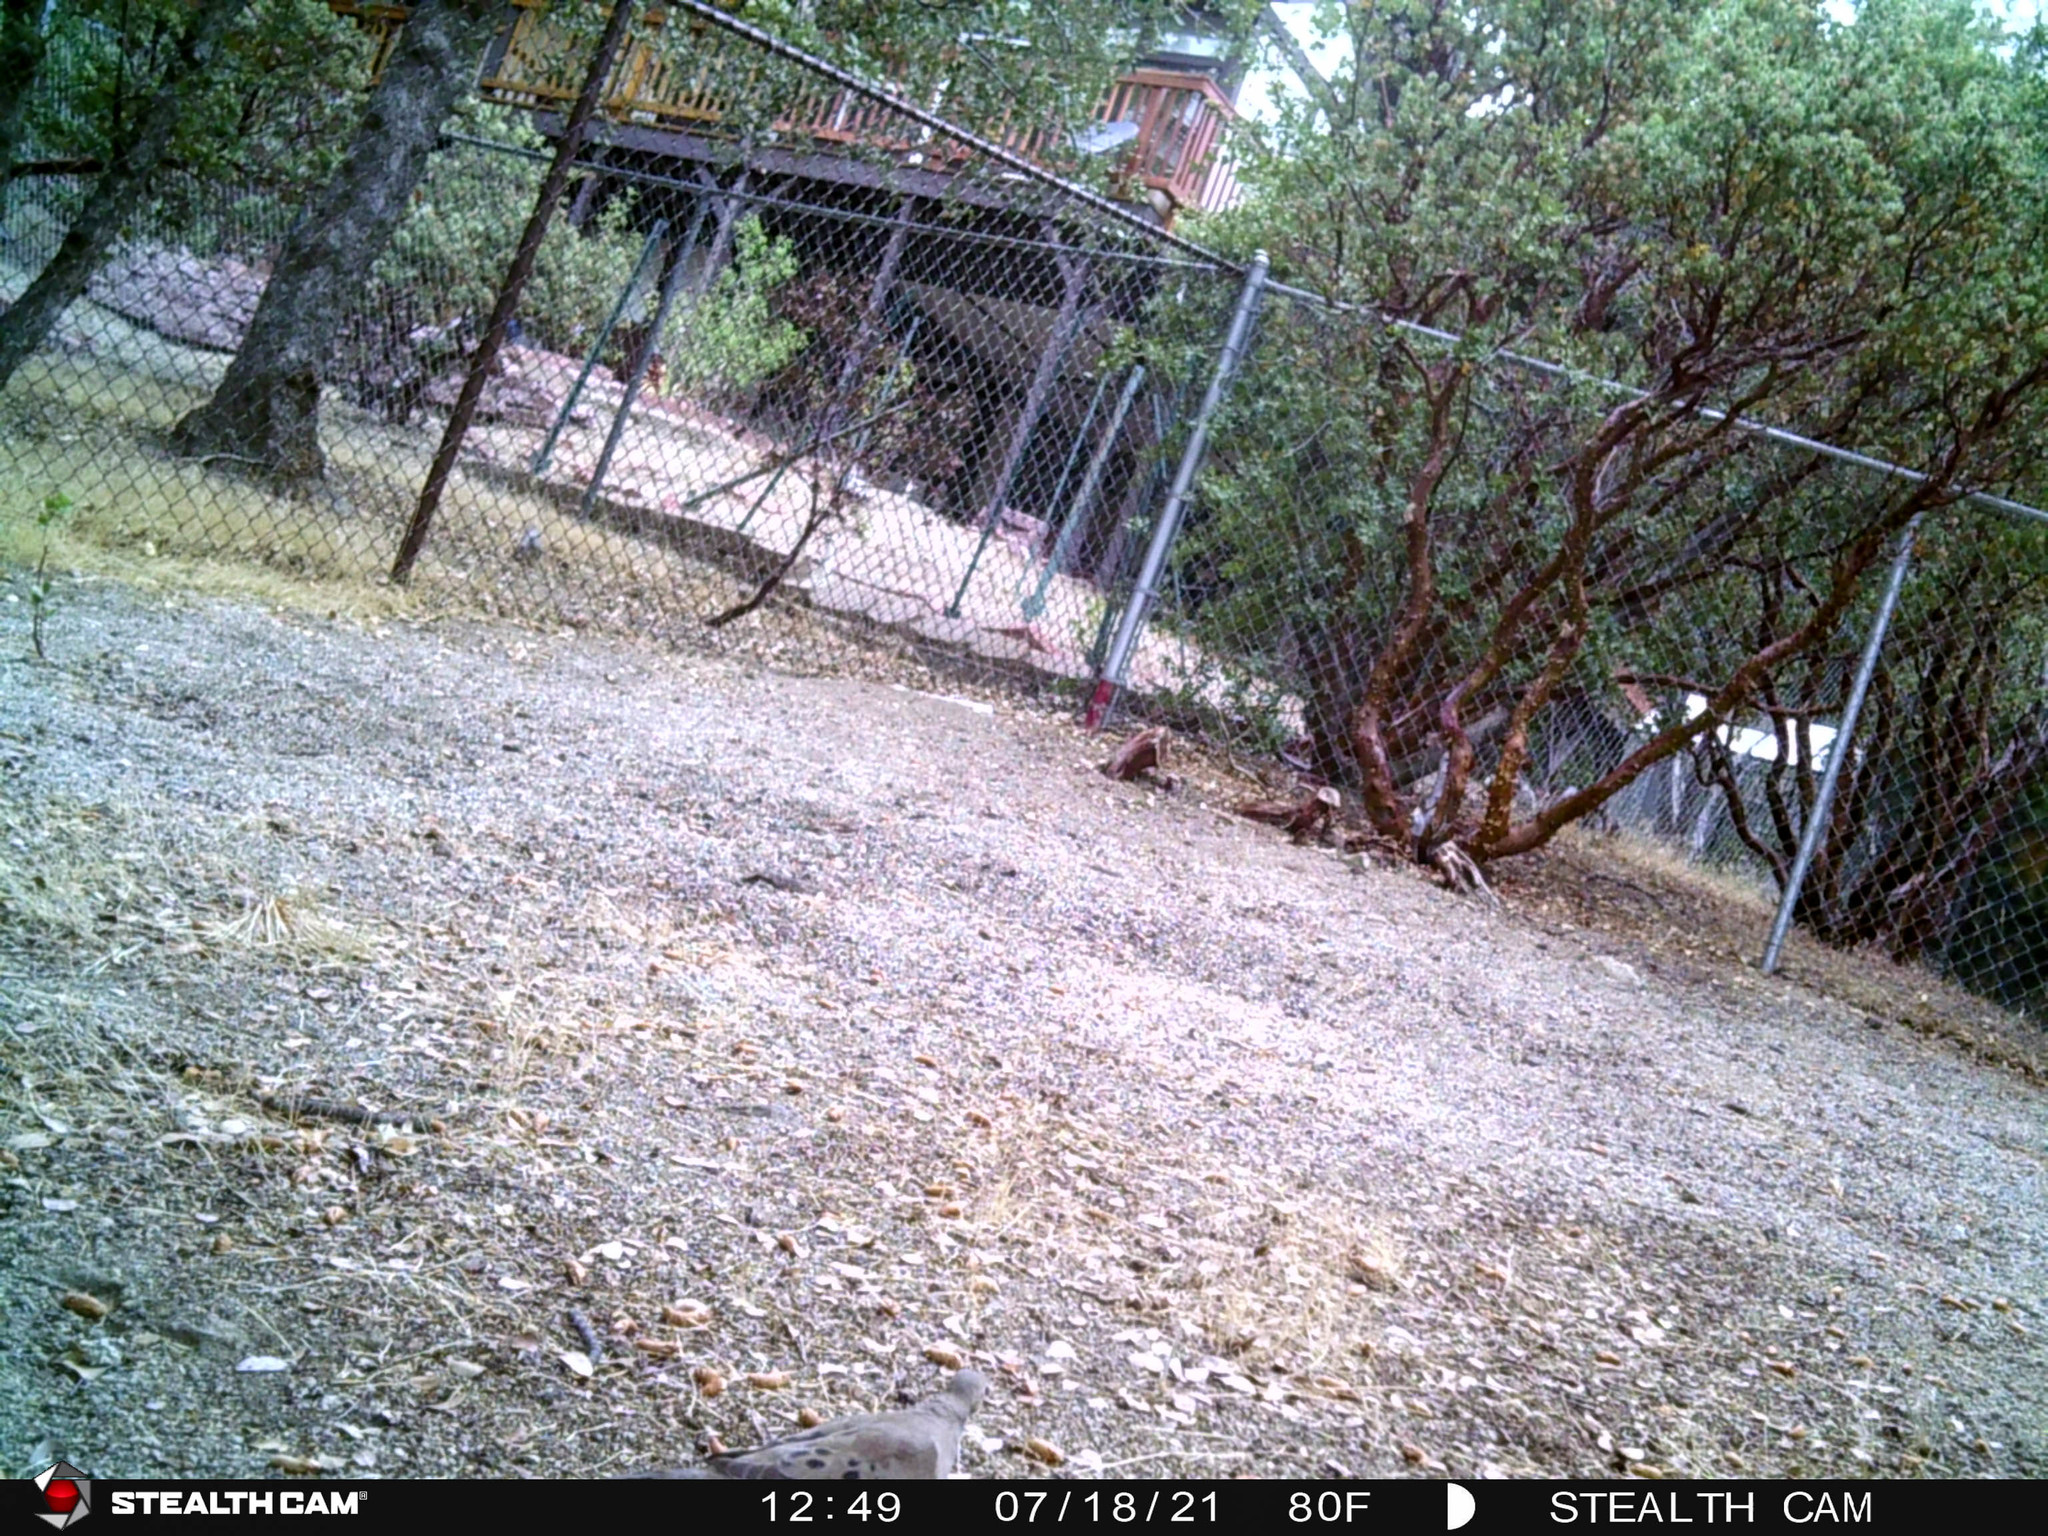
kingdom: Animalia
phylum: Chordata
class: Aves
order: Columbiformes
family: Columbidae
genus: Zenaida
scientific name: Zenaida macroura
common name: Mourning dove
